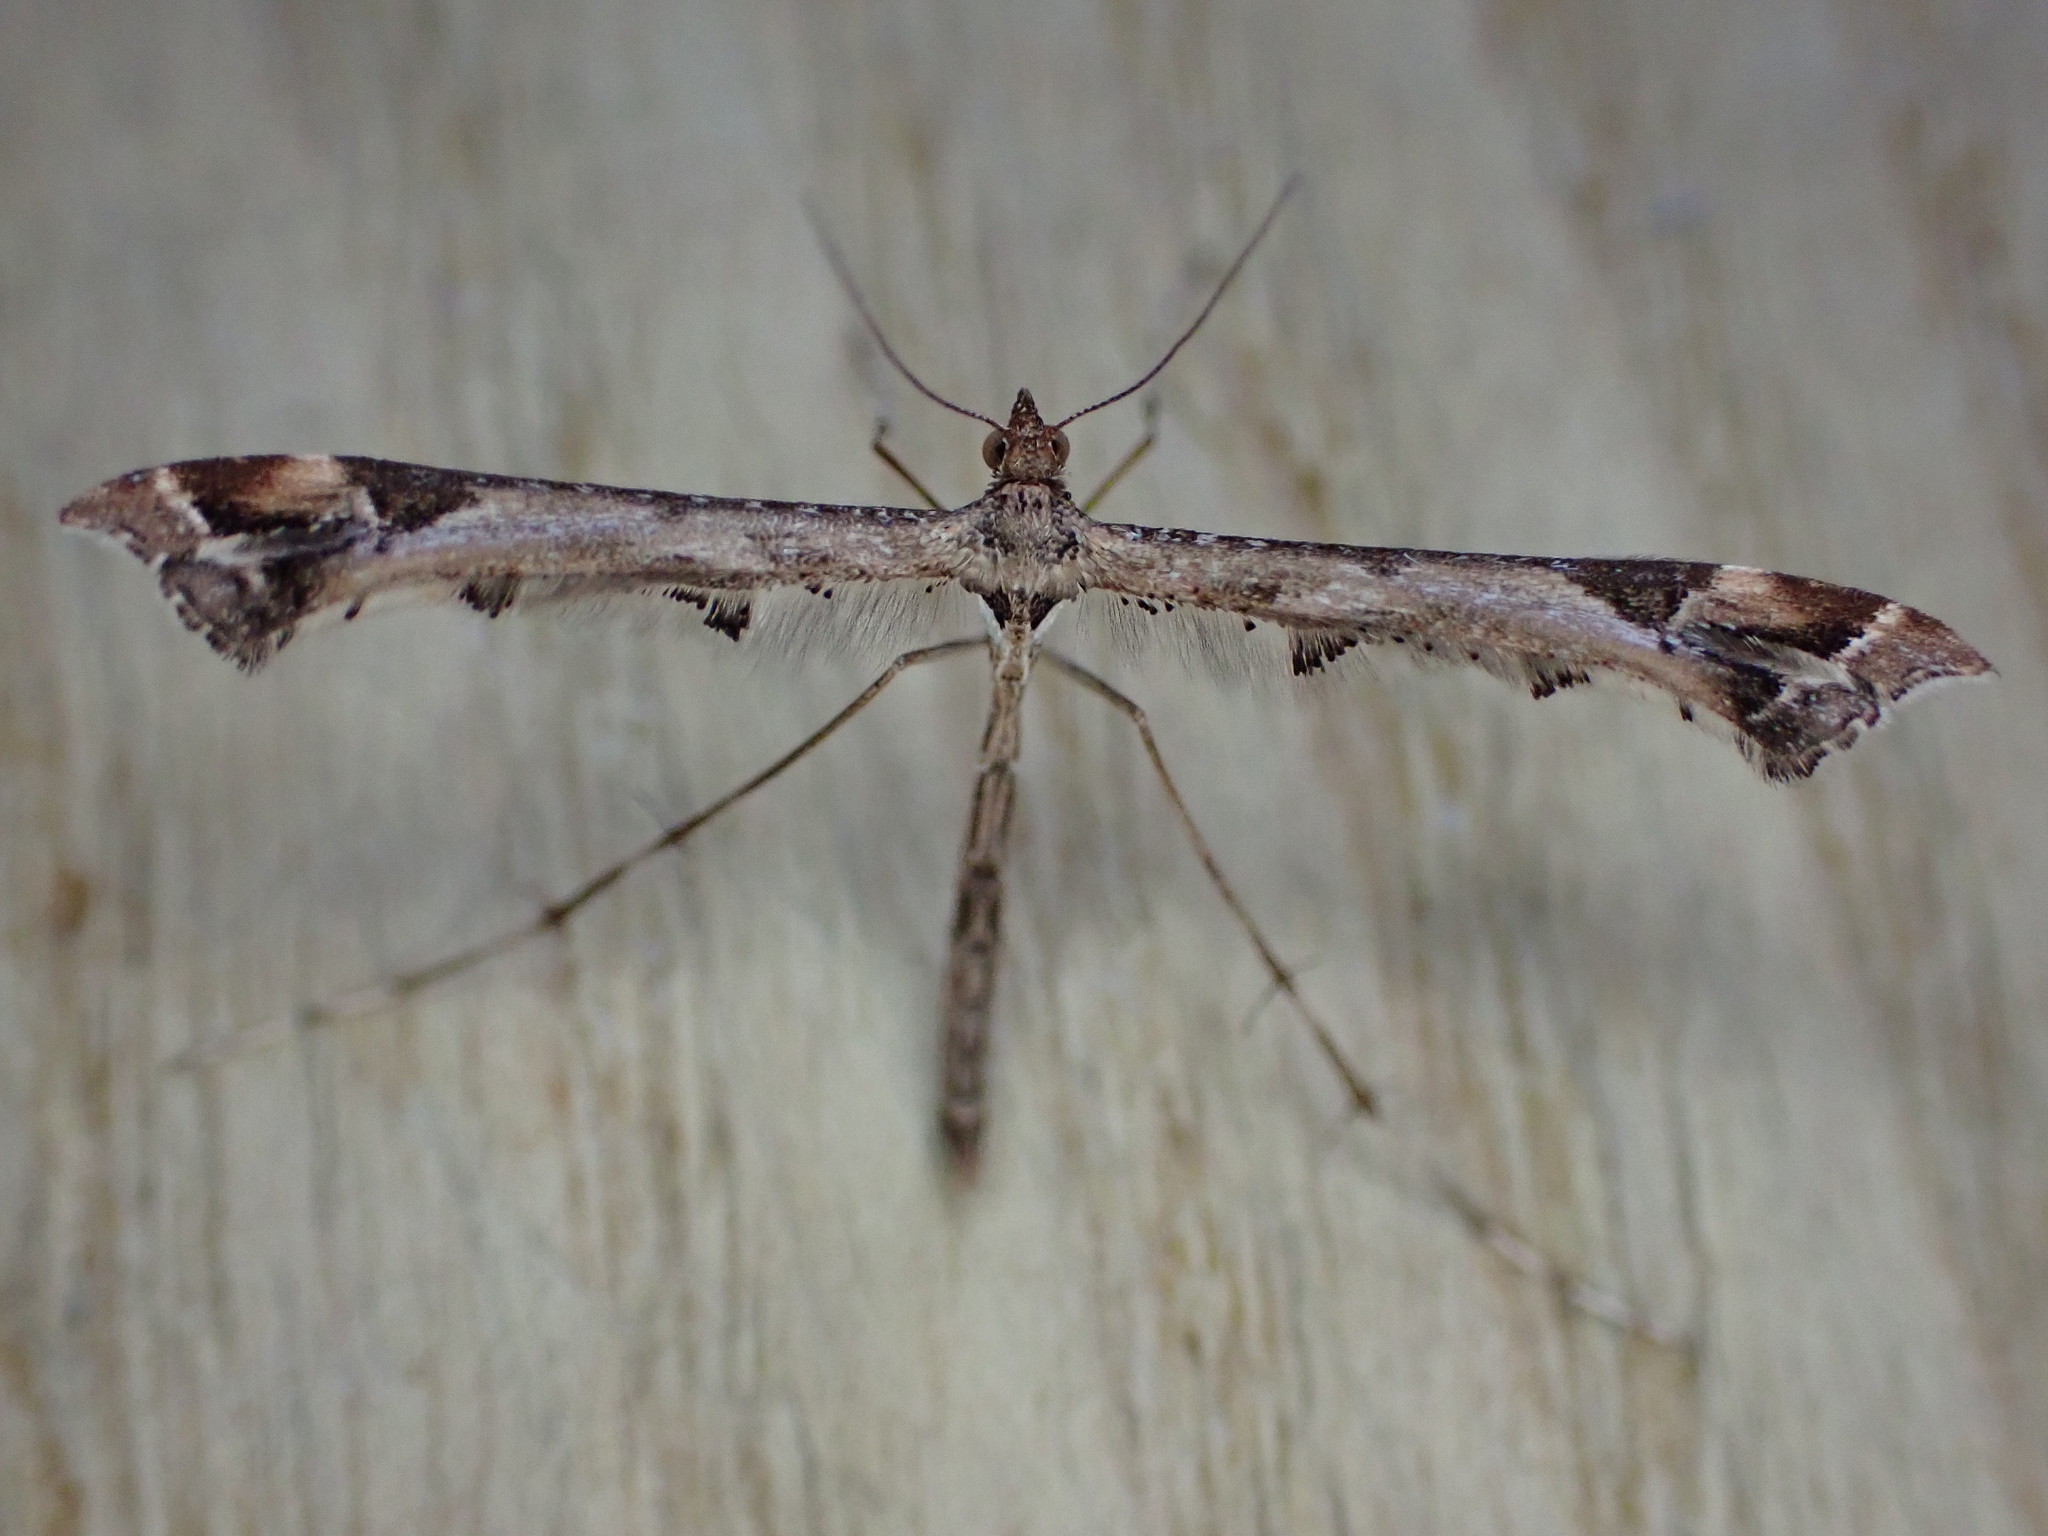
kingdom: Animalia
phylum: Arthropoda
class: Insecta
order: Lepidoptera
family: Pterophoridae
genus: Amblyptilia
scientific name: Amblyptilia acanthadactyla
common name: Beautiful plume
